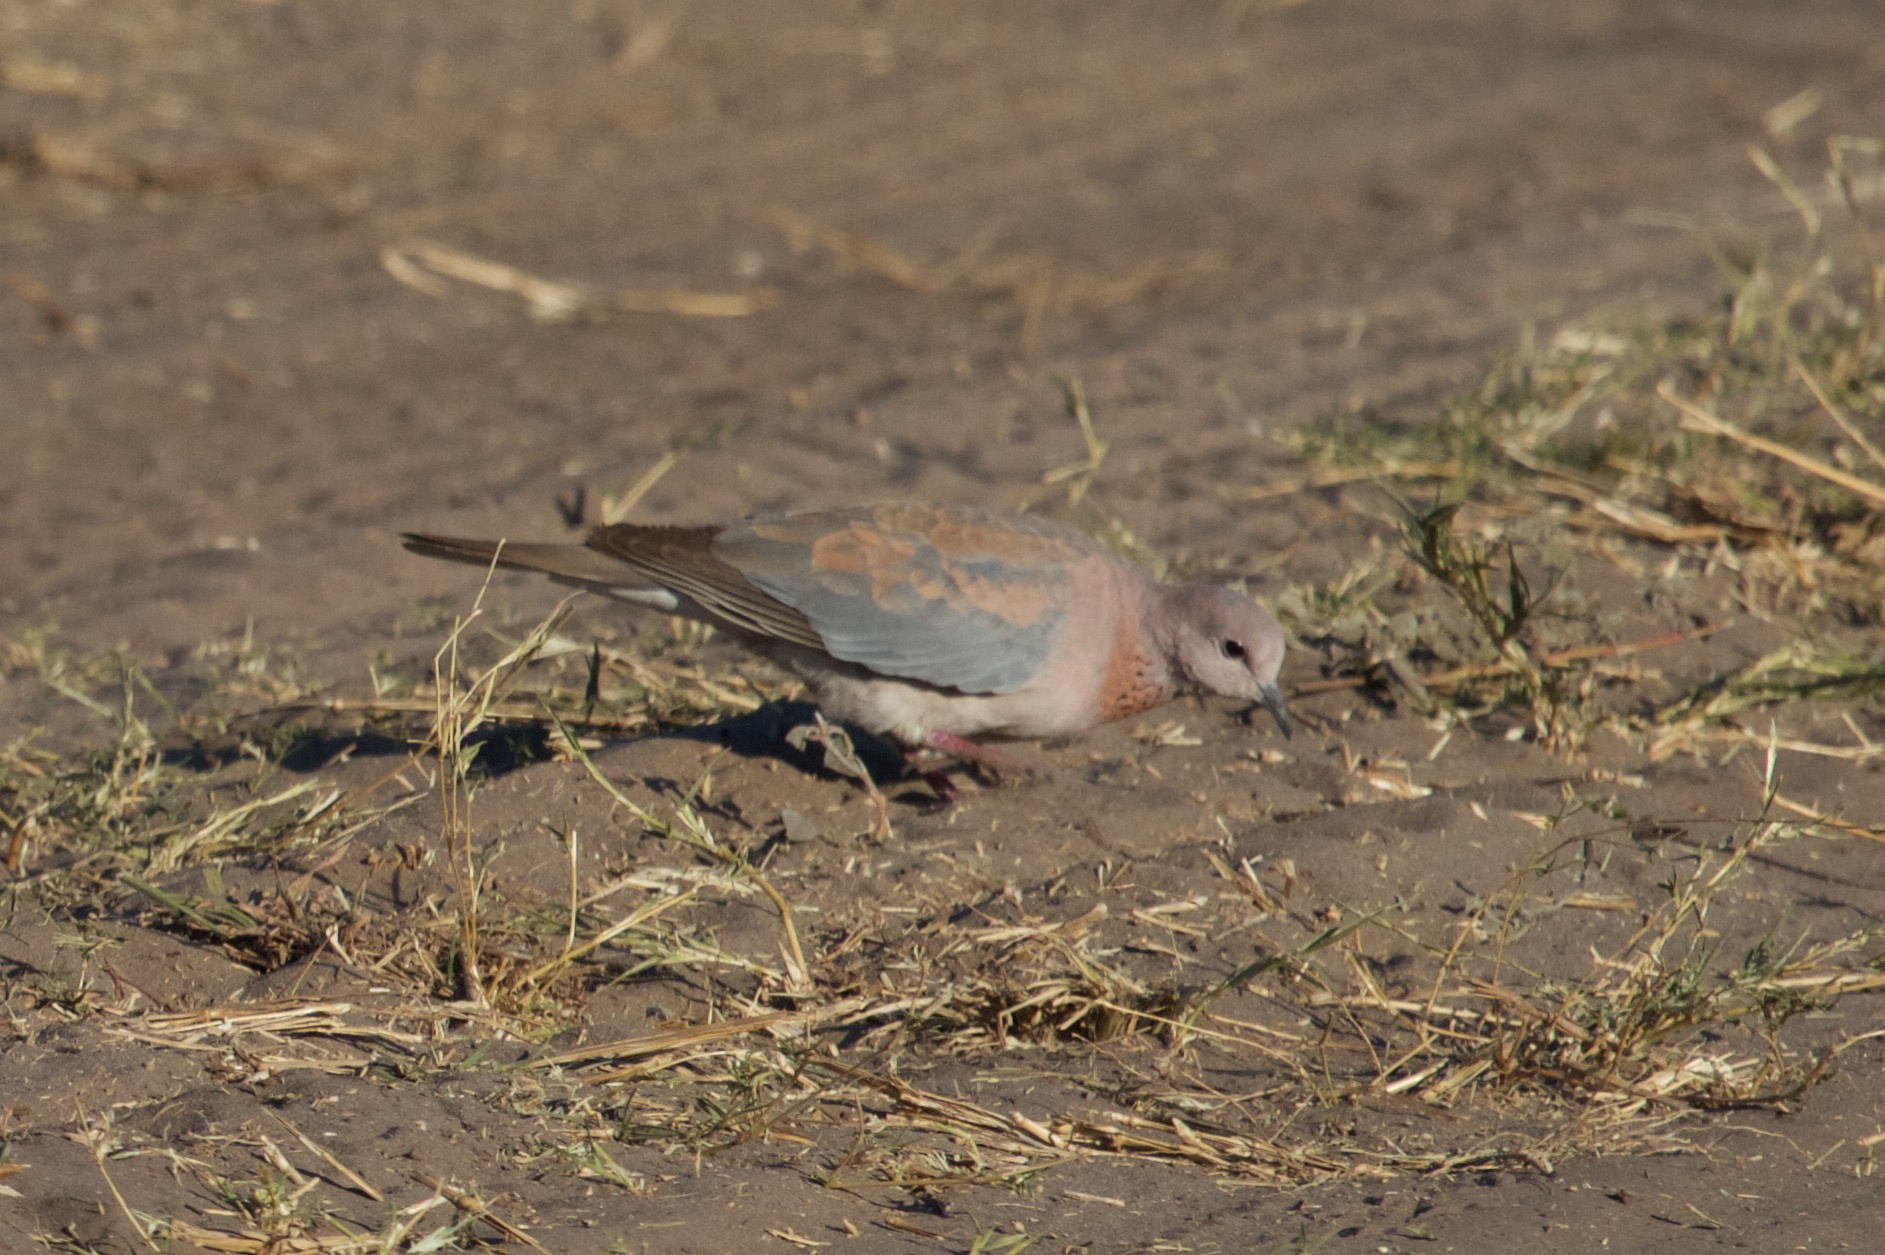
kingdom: Animalia
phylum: Chordata
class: Aves
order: Columbiformes
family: Columbidae
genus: Spilopelia
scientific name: Spilopelia senegalensis
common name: Laughing dove
